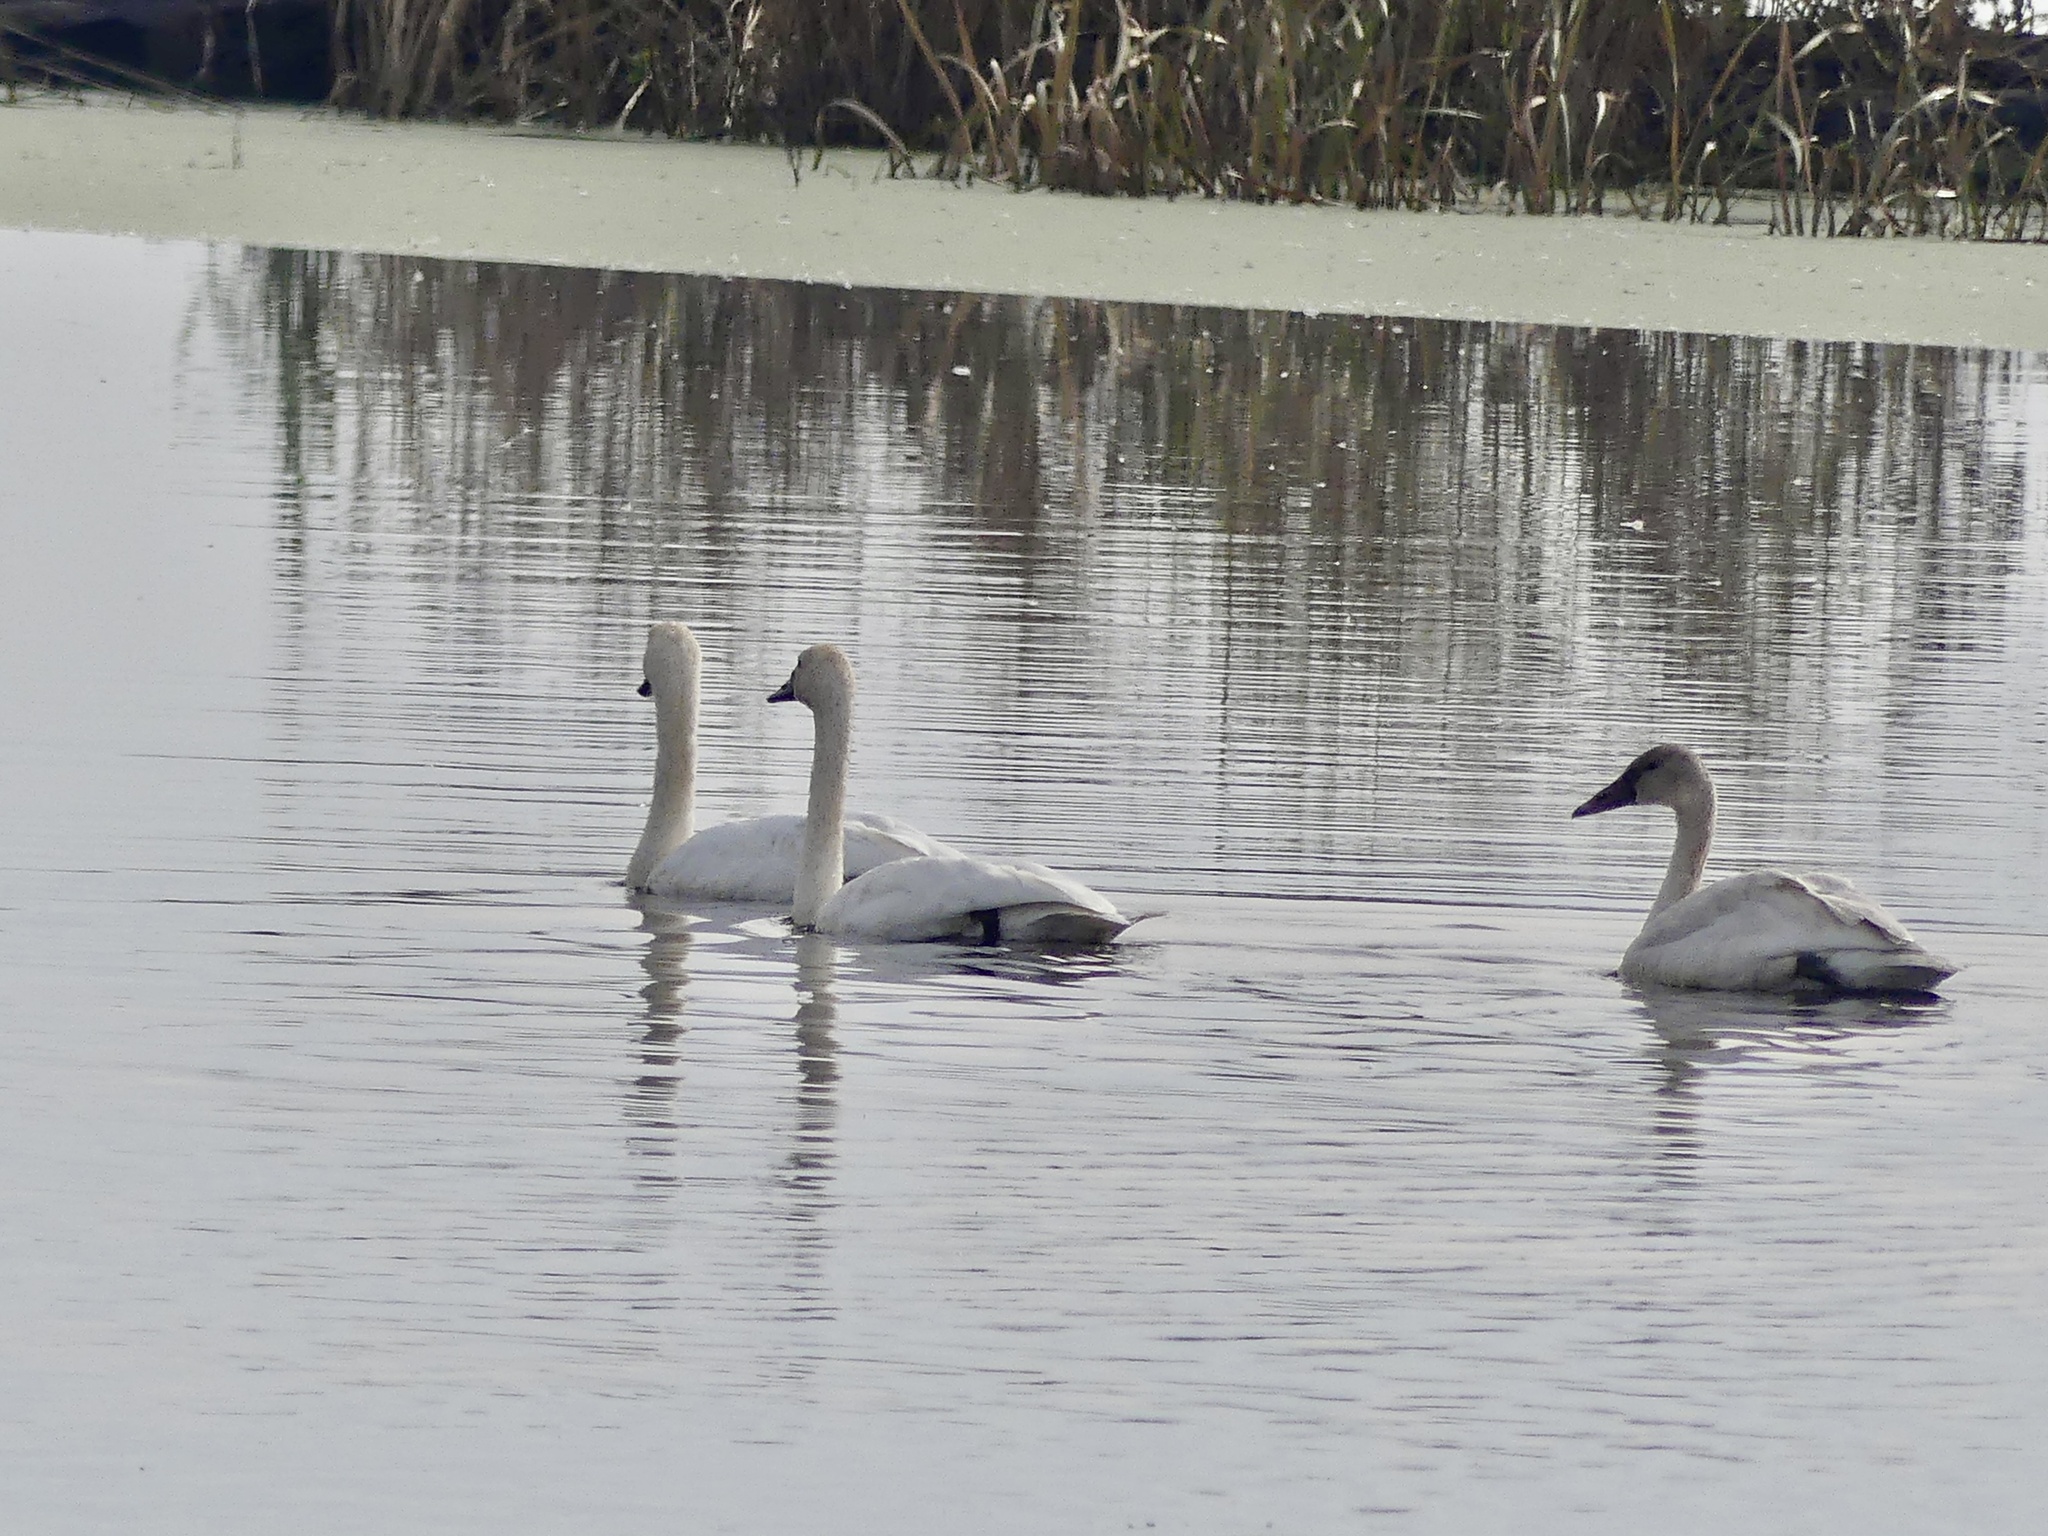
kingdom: Animalia
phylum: Chordata
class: Aves
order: Anseriformes
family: Anatidae
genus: Cygnus
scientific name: Cygnus columbianus
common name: Tundra swan
